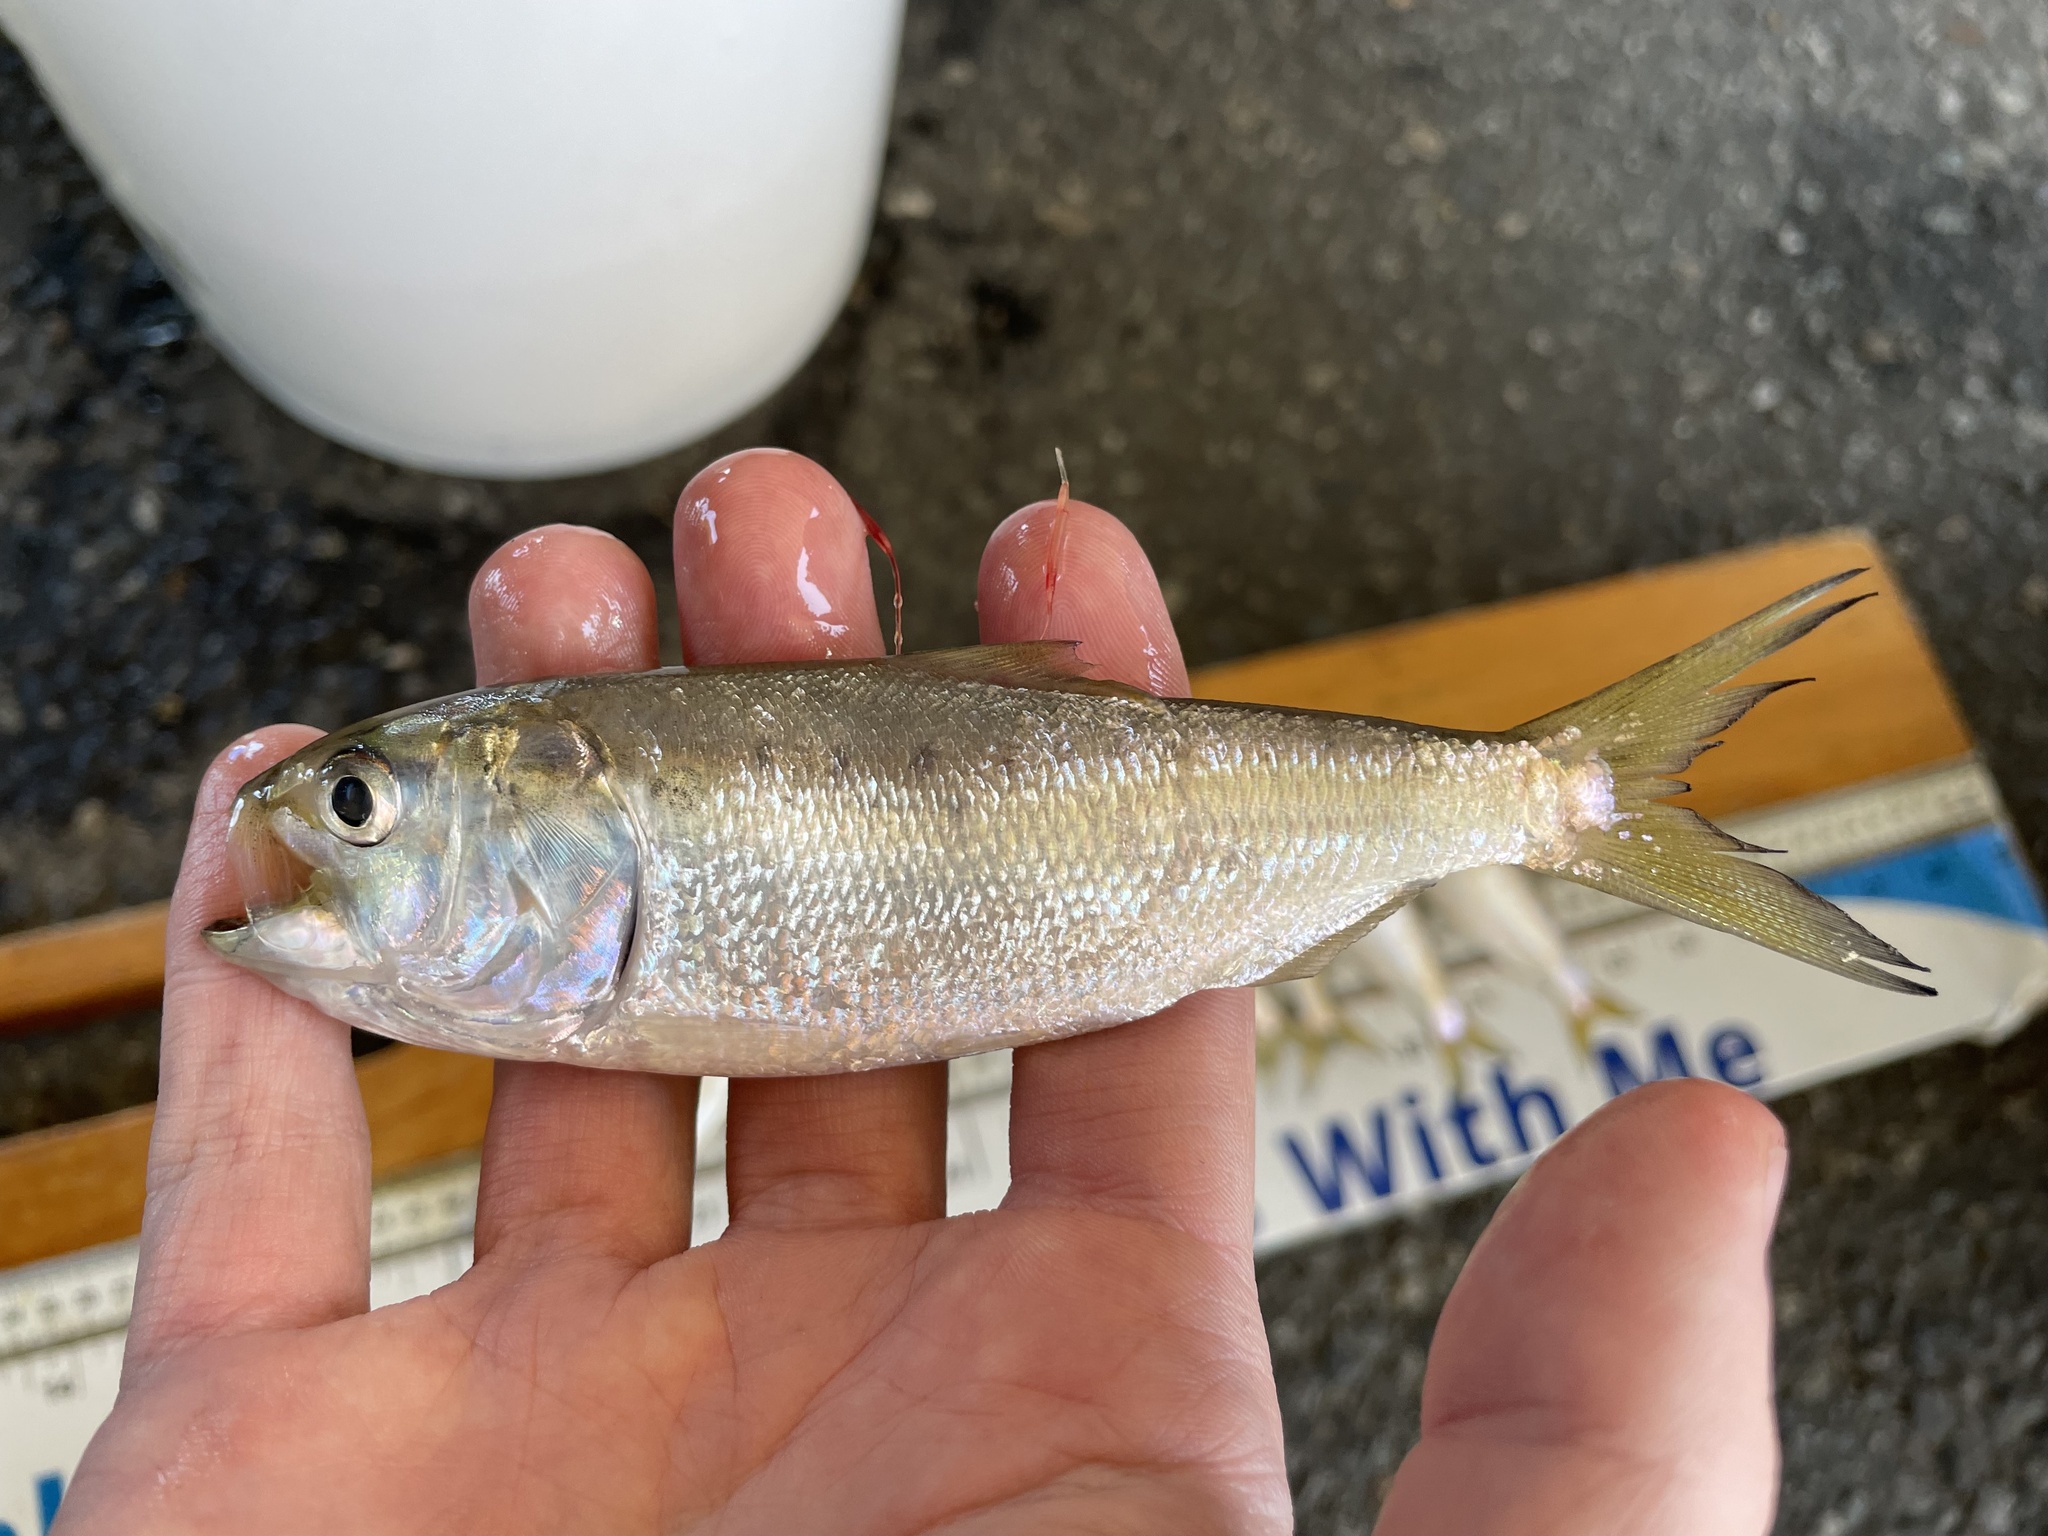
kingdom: Animalia
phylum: Chordata
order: Clupeiformes
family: Clupeidae
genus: Brevoortia
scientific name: Brevoortia tyrannus
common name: Atlantic menhaden
